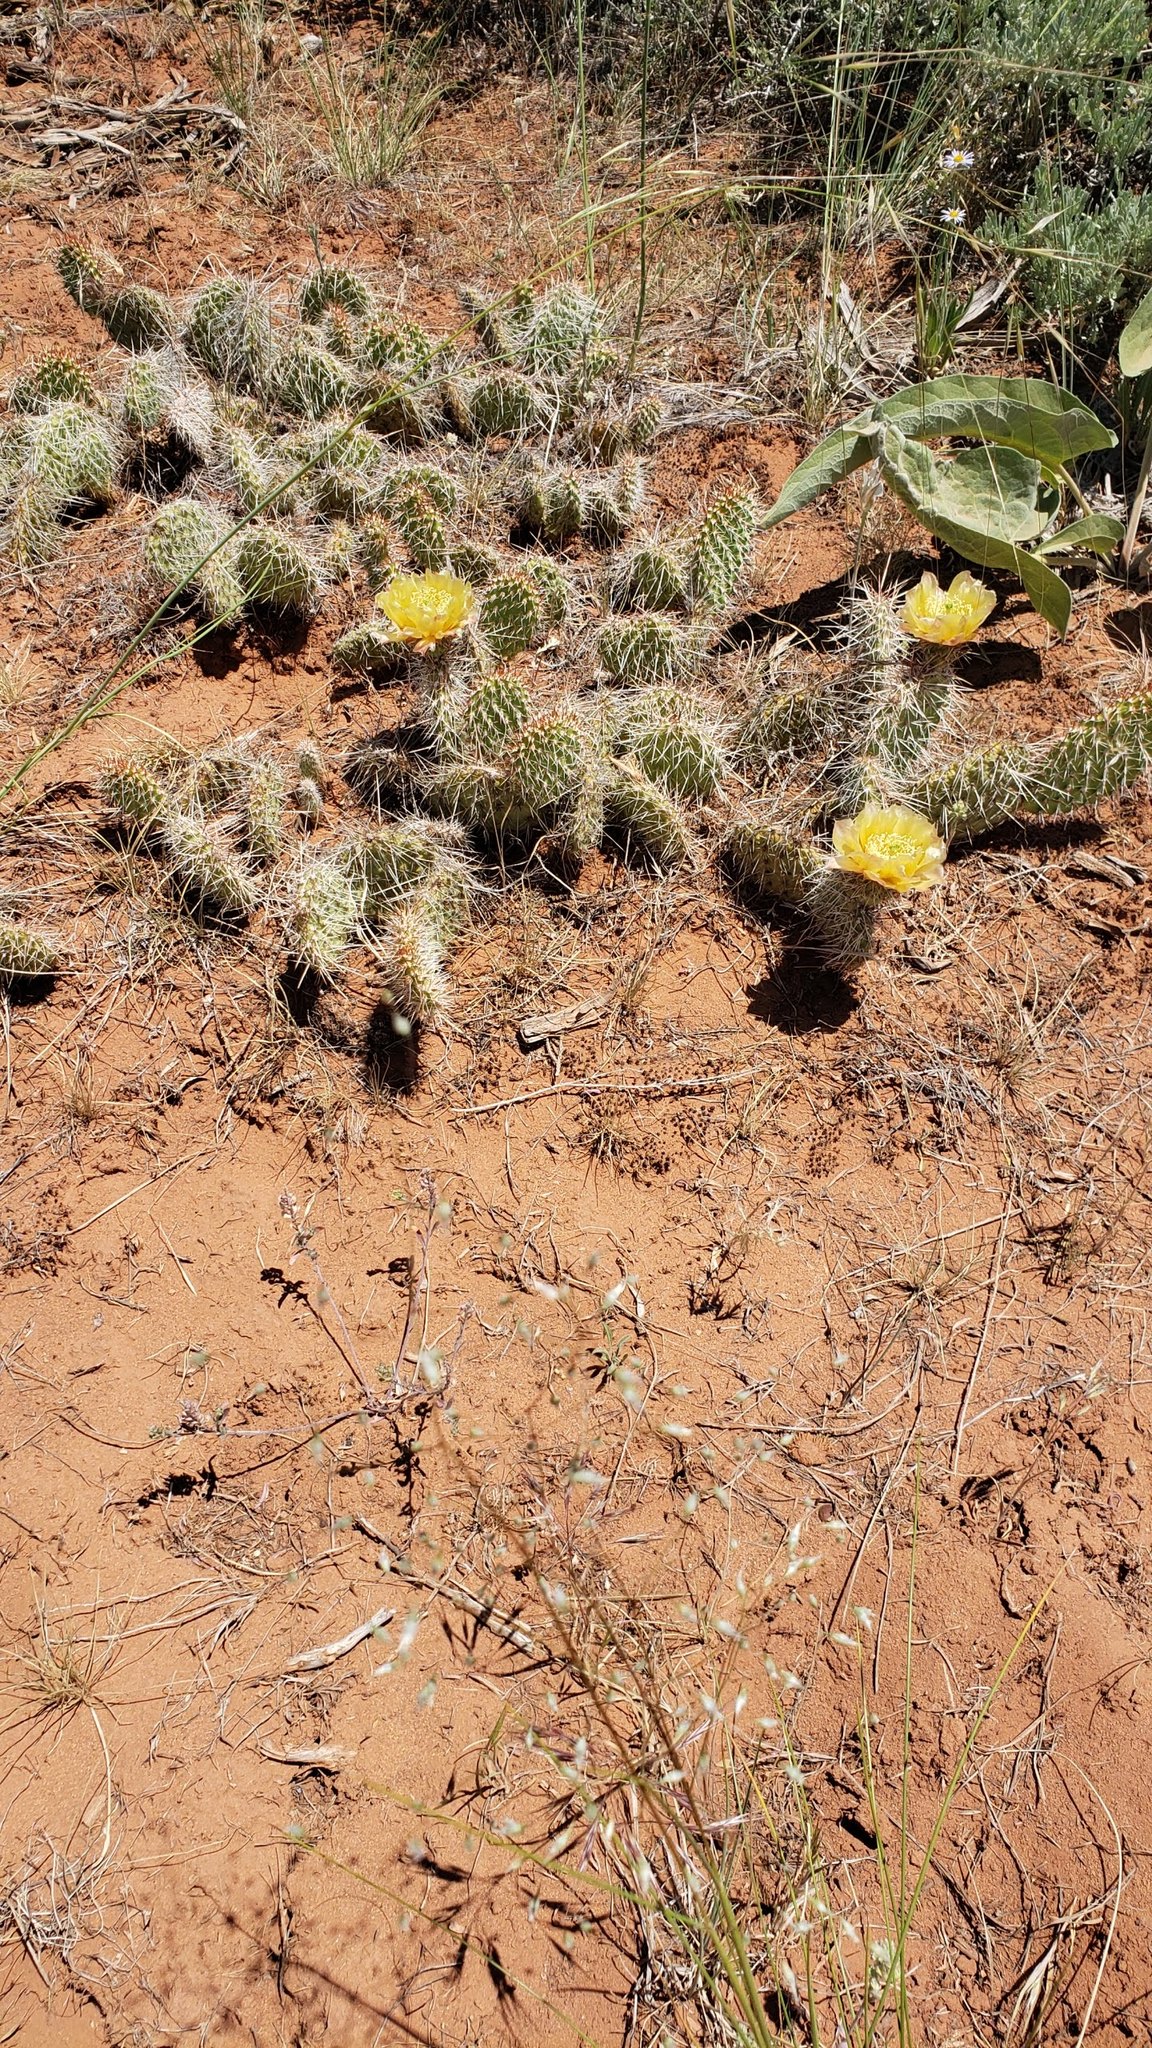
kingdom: Plantae
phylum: Tracheophyta
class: Magnoliopsida
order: Caryophyllales
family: Cactaceae
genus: Opuntia
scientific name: Opuntia polyacantha
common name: Plains prickly-pear
